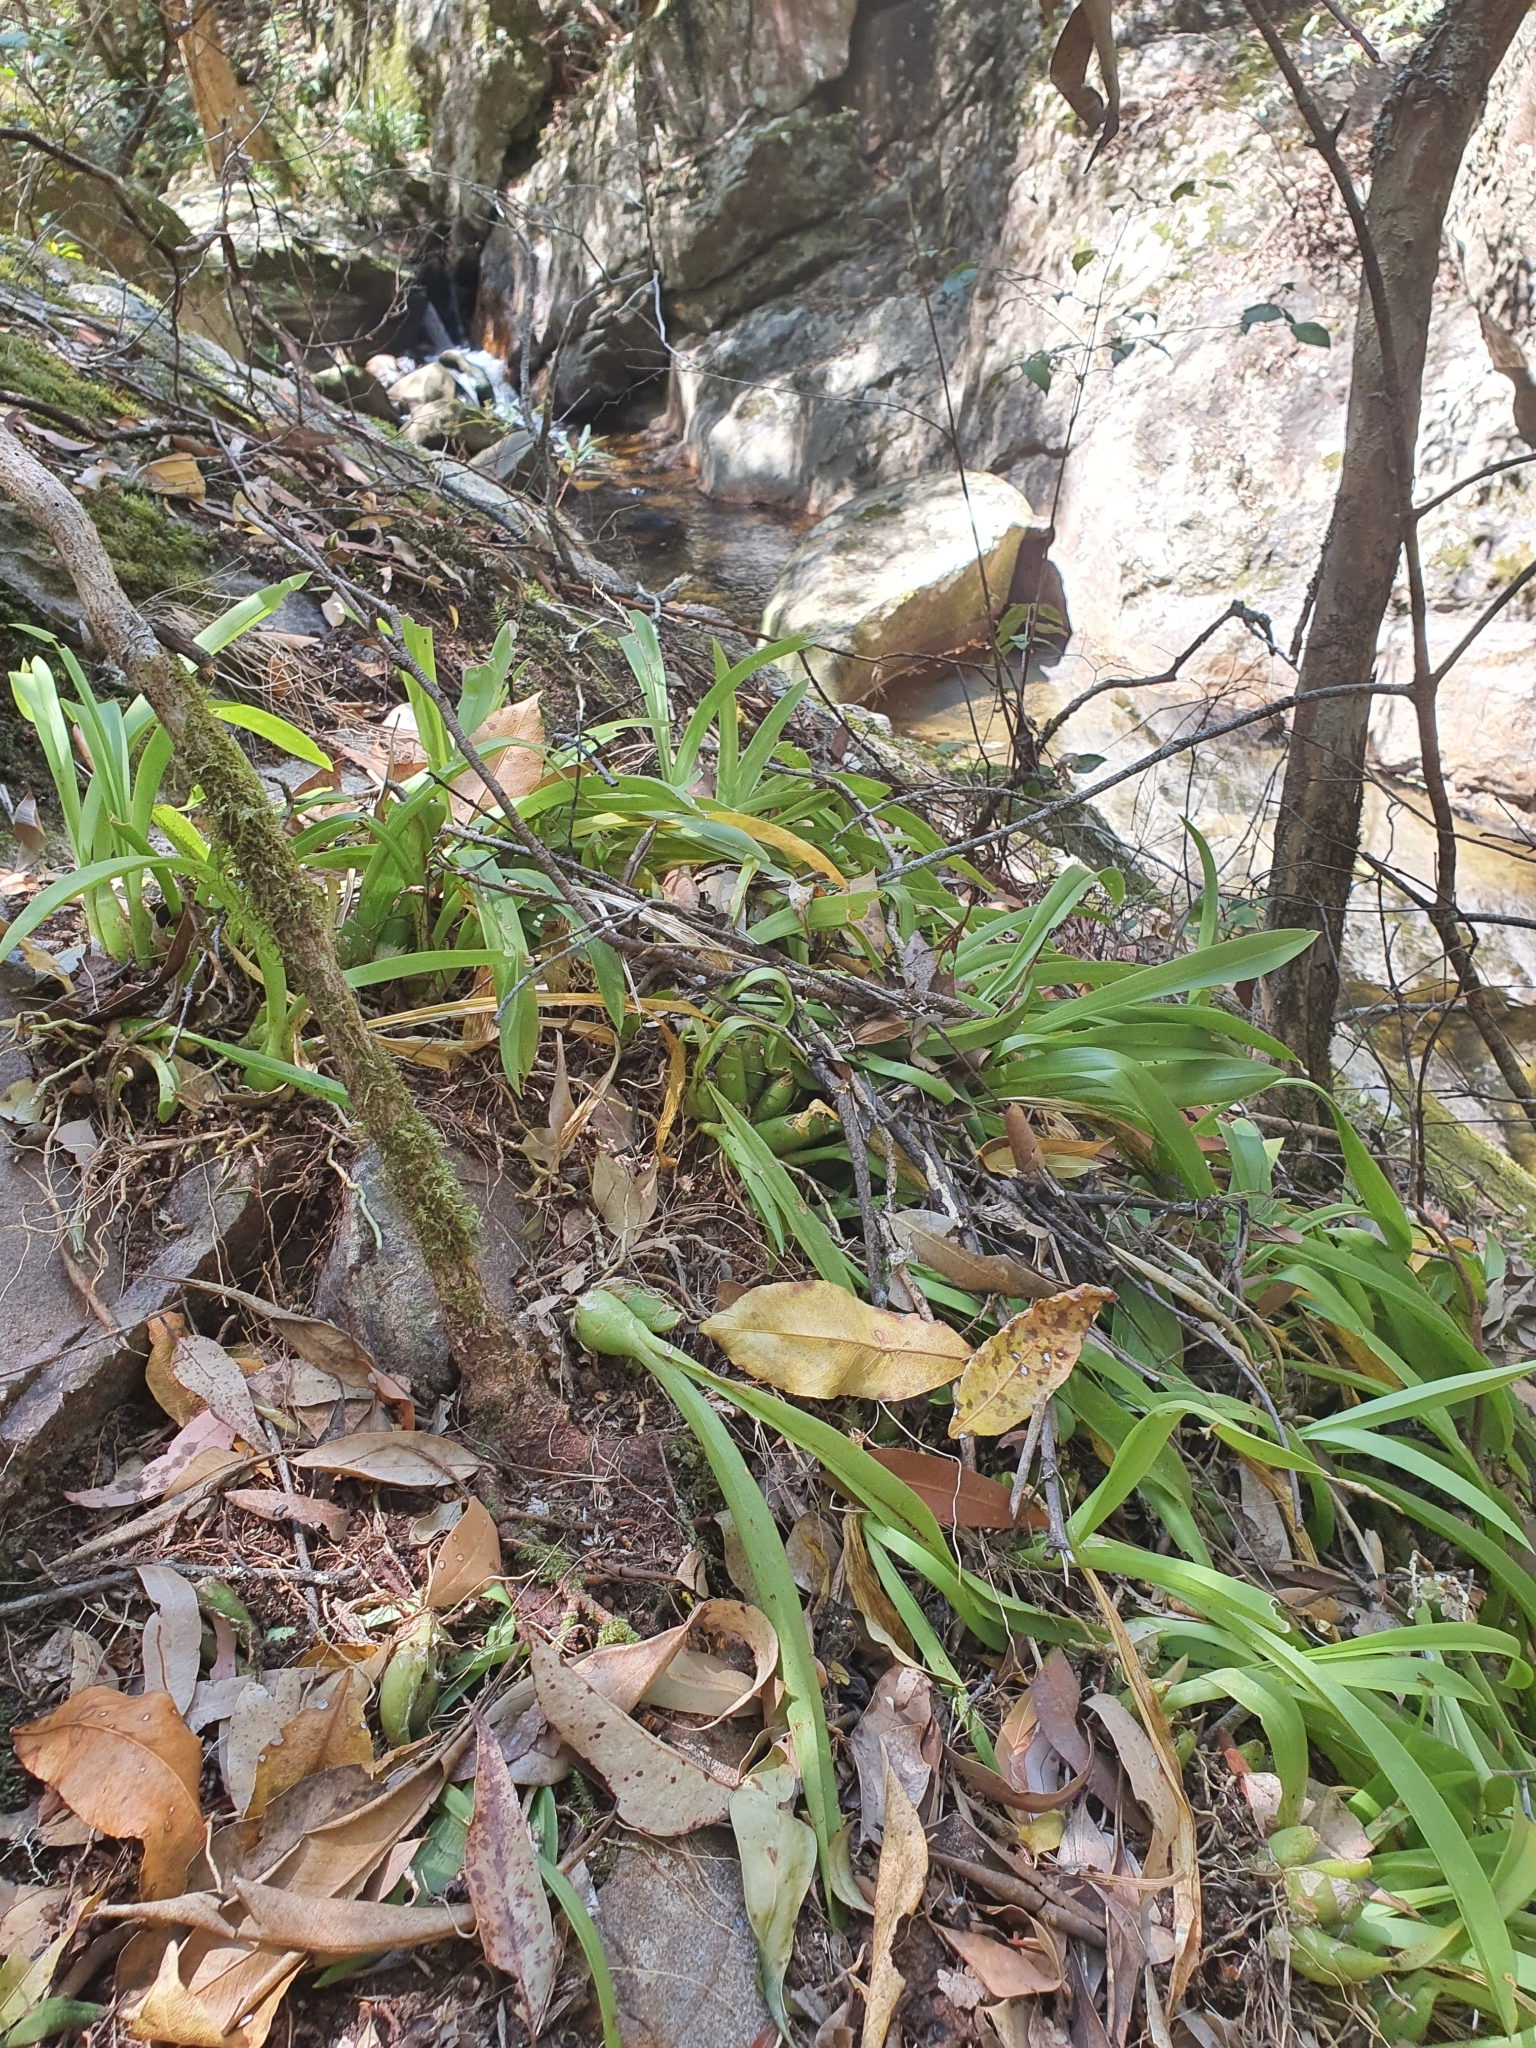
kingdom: Plantae
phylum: Tracheophyta
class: Liliopsida
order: Asparagales
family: Orchidaceae
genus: Liparis
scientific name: Liparis reflexa
